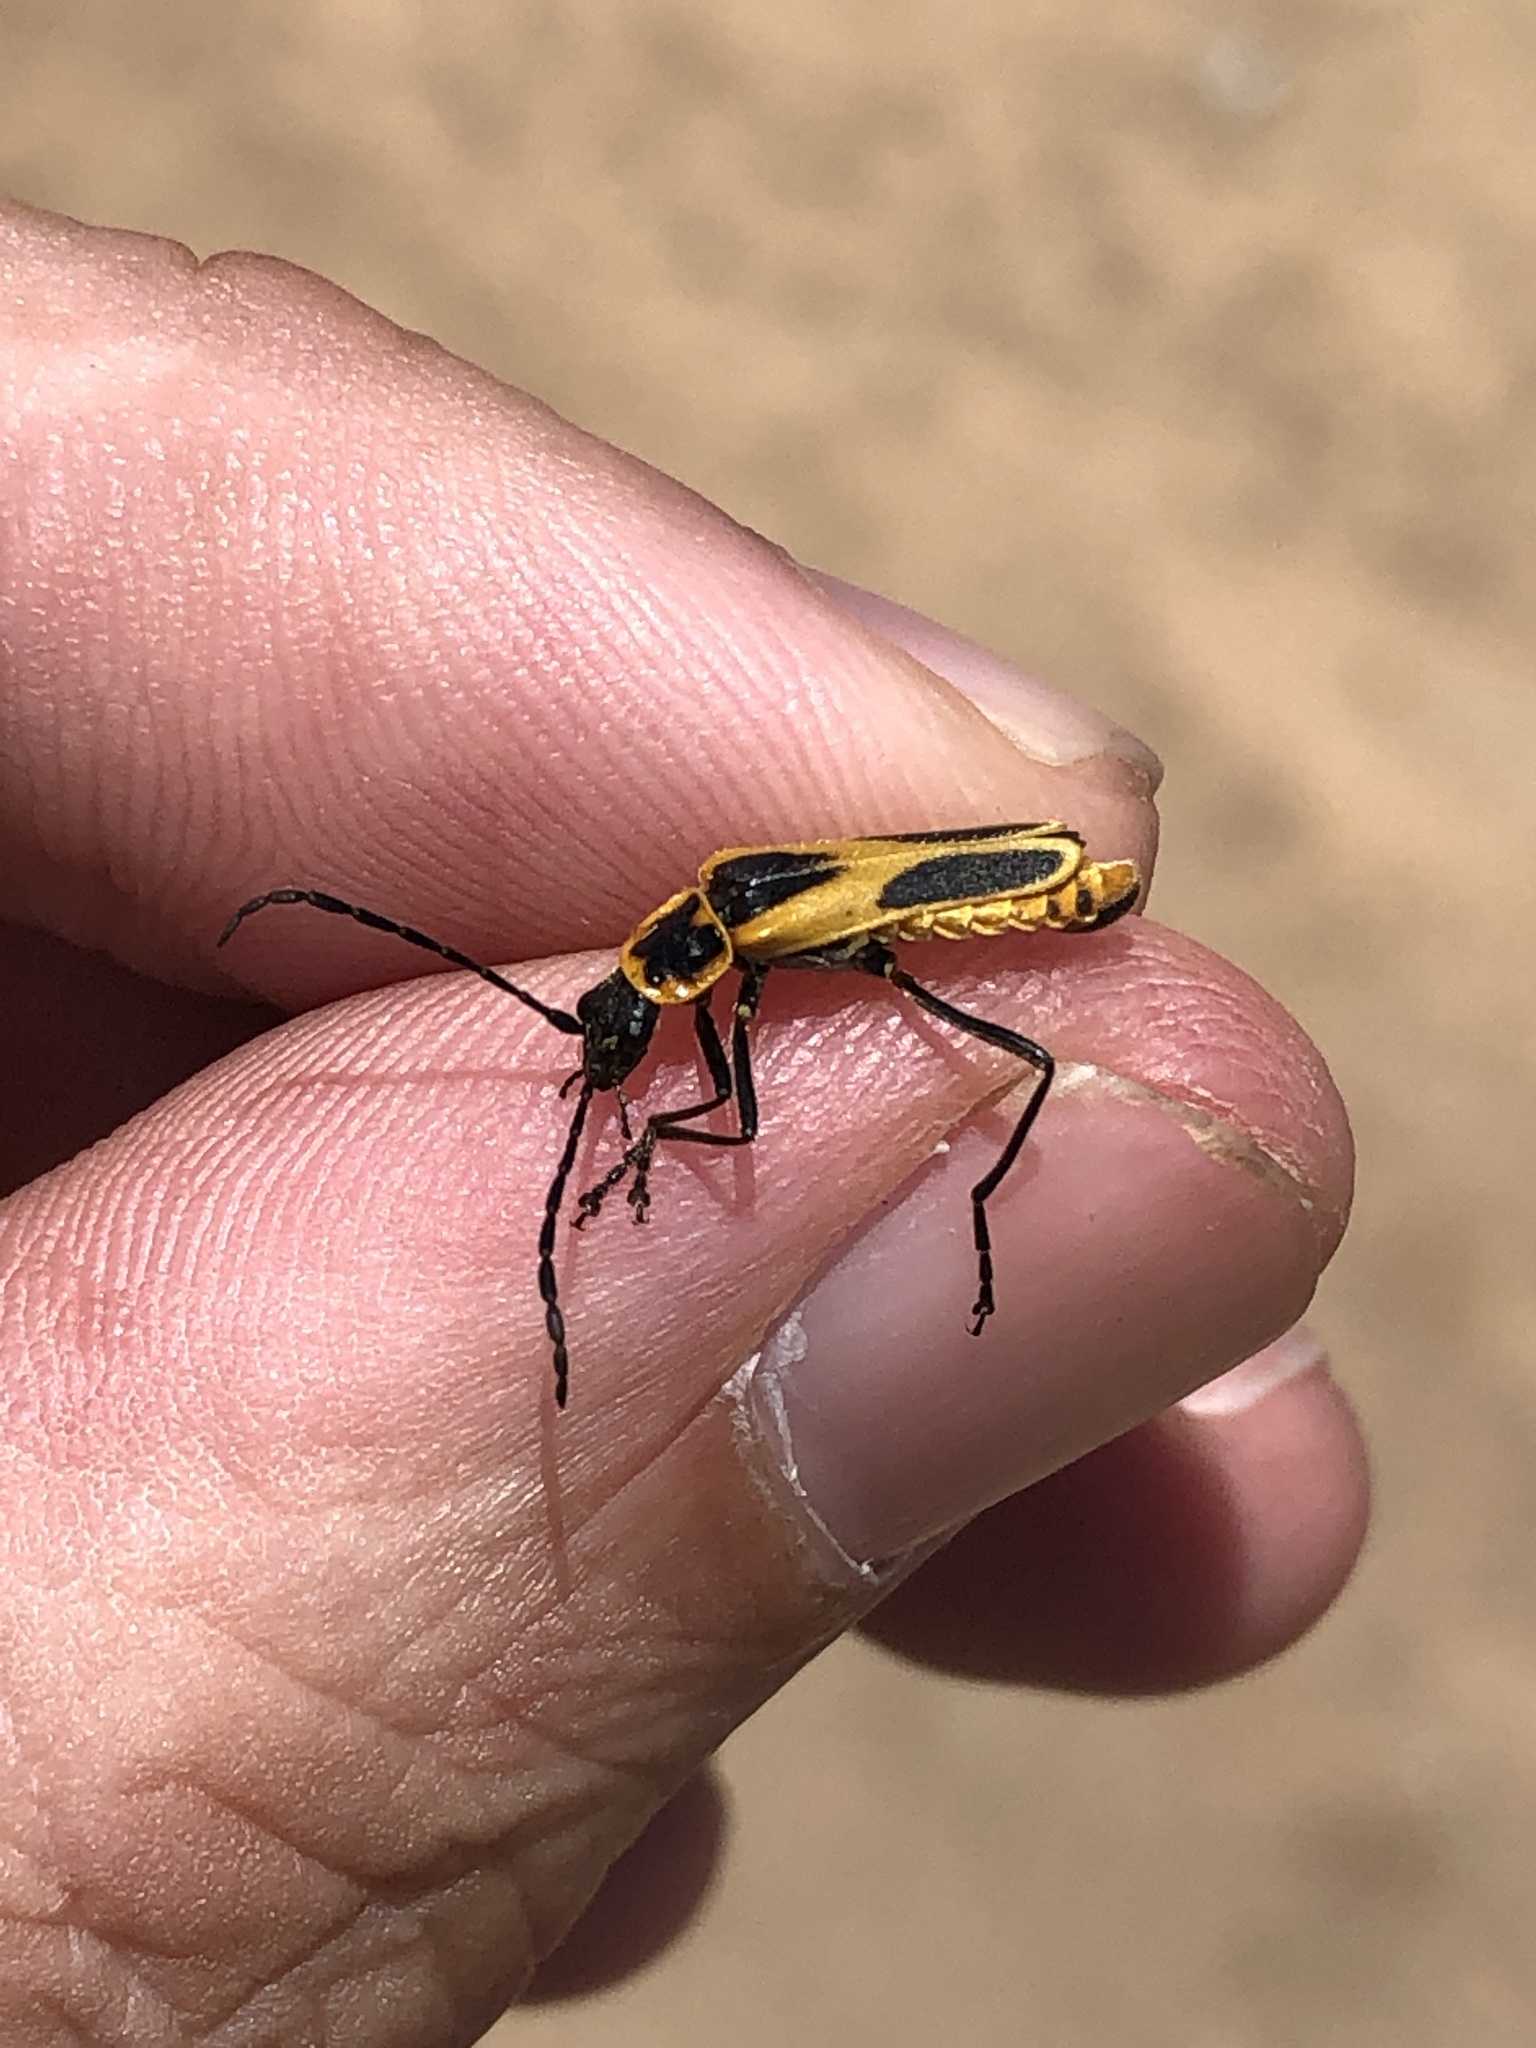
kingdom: Animalia
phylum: Arthropoda
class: Insecta
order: Coleoptera
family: Cantharidae
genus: Chauliognathus
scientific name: Chauliognathus scutellaris
